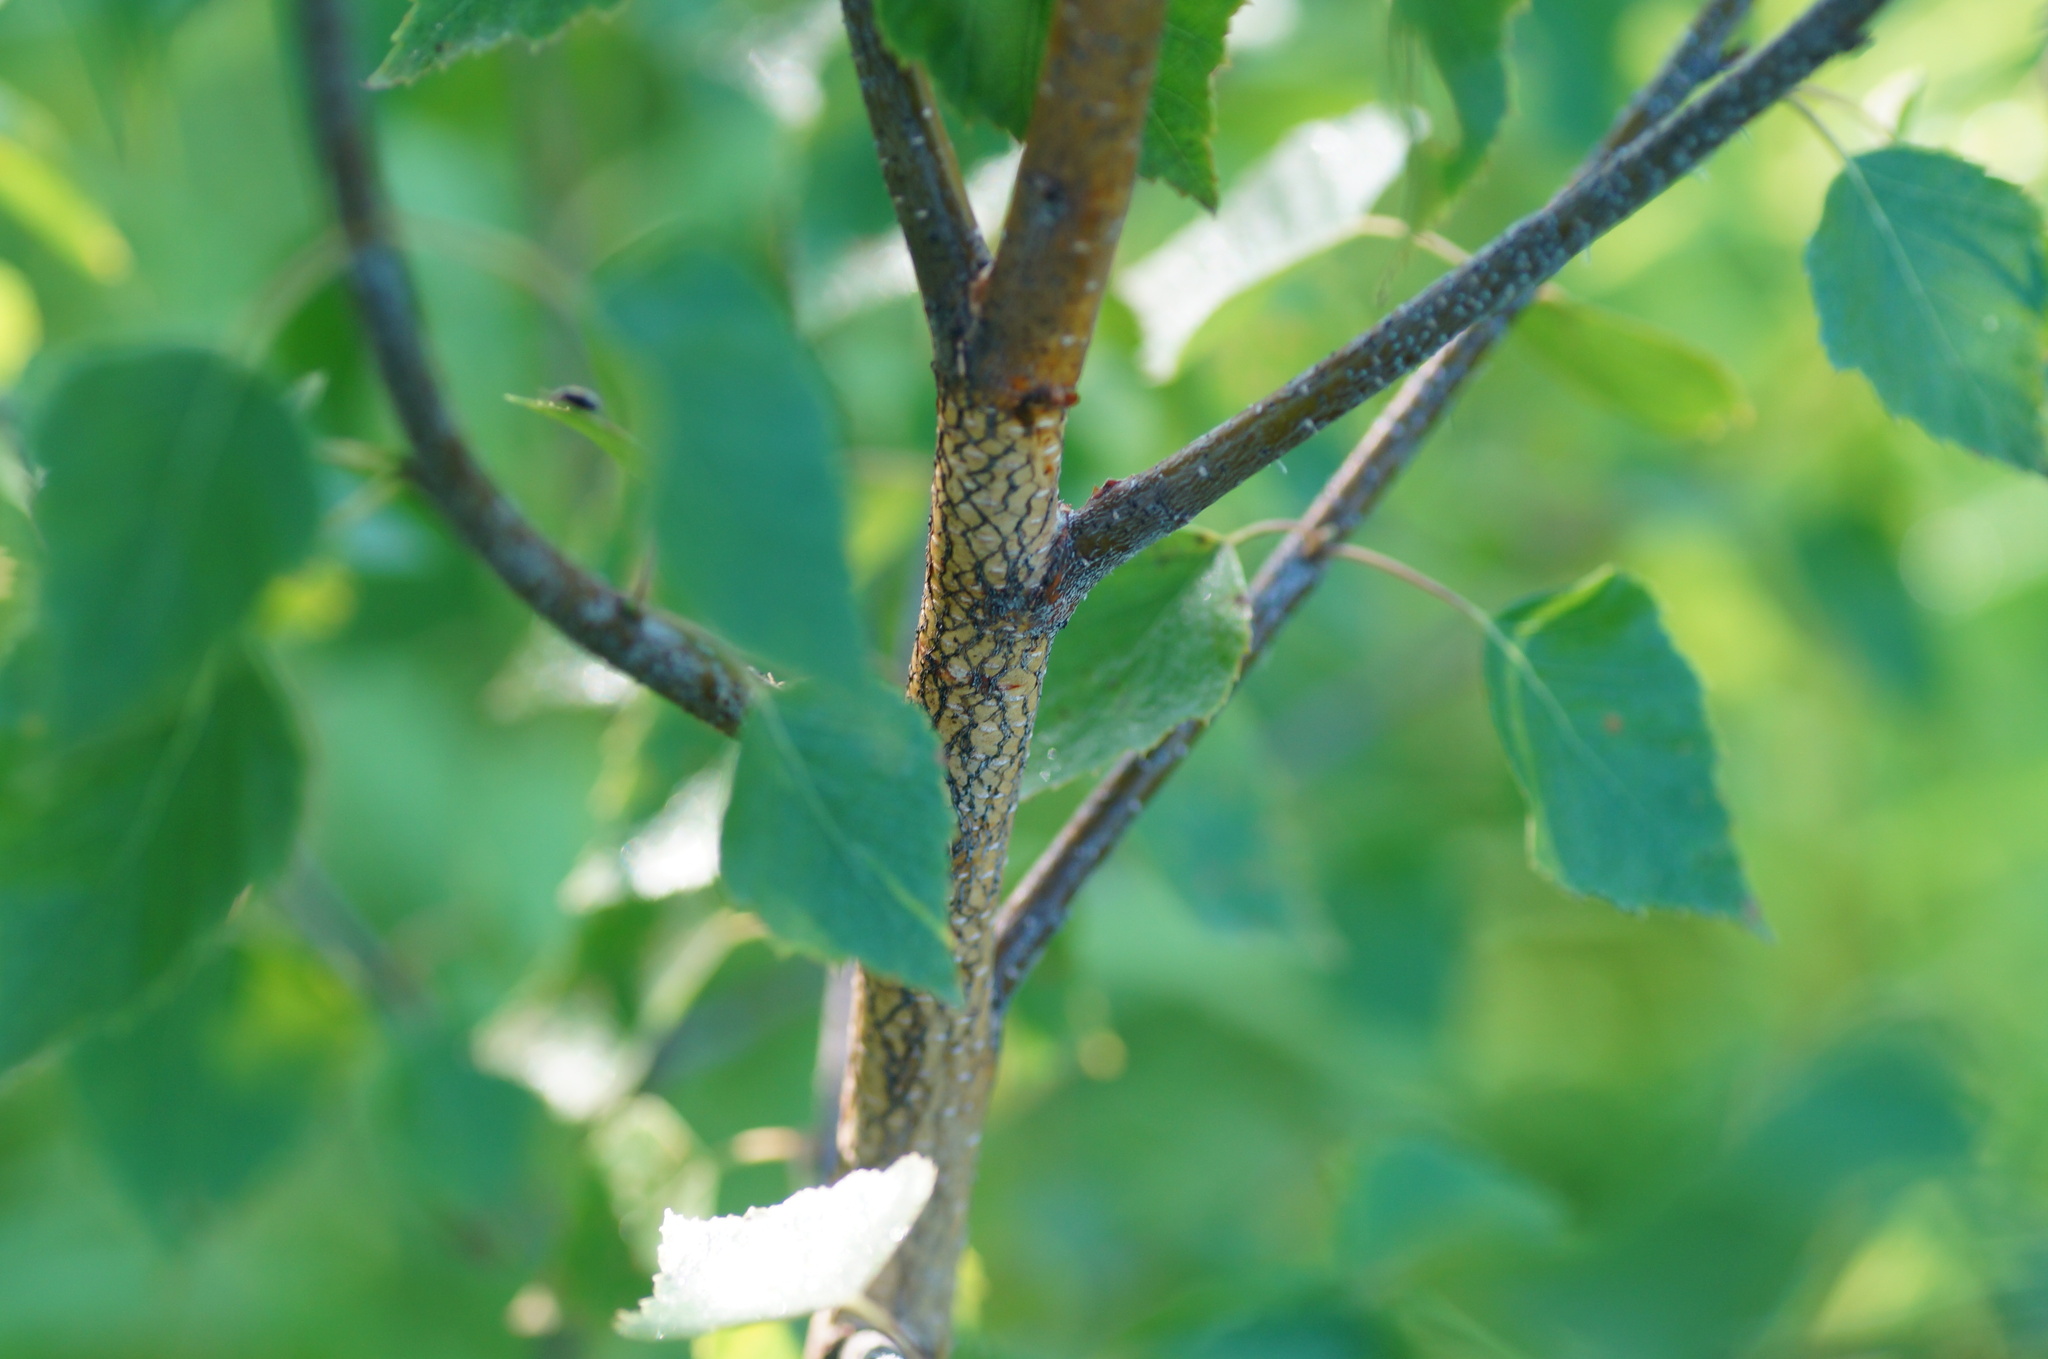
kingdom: Plantae
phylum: Tracheophyta
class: Magnoliopsida
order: Fagales
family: Betulaceae
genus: Betula
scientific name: Betula pendula
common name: Silver birch
